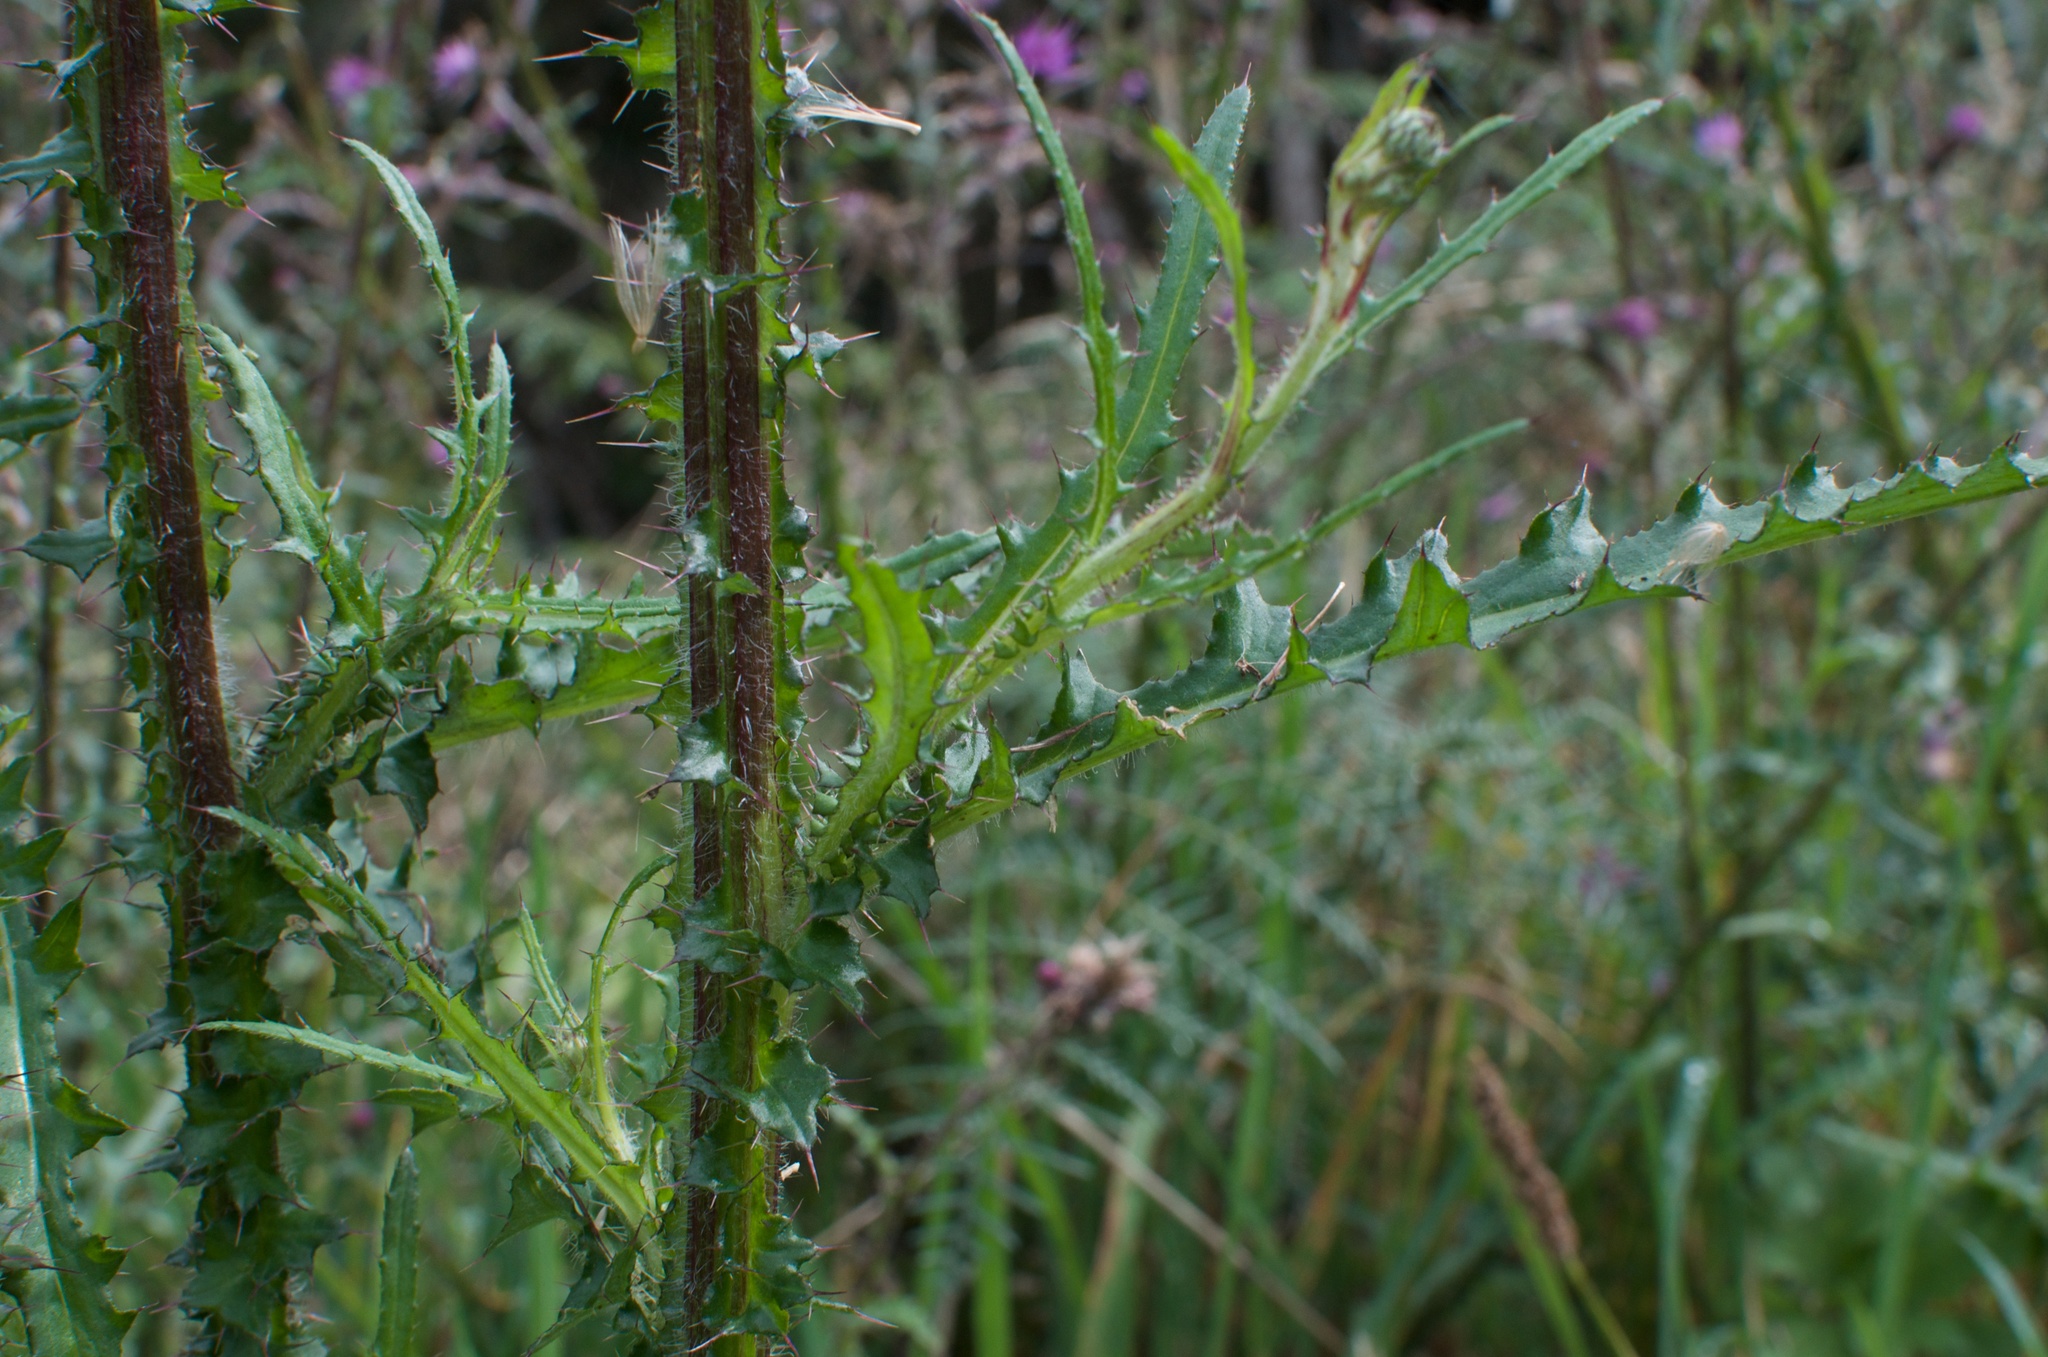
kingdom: Plantae
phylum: Tracheophyta
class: Magnoliopsida
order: Asterales
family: Asteraceae
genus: Cirsium
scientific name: Cirsium palustre
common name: Marsh thistle
